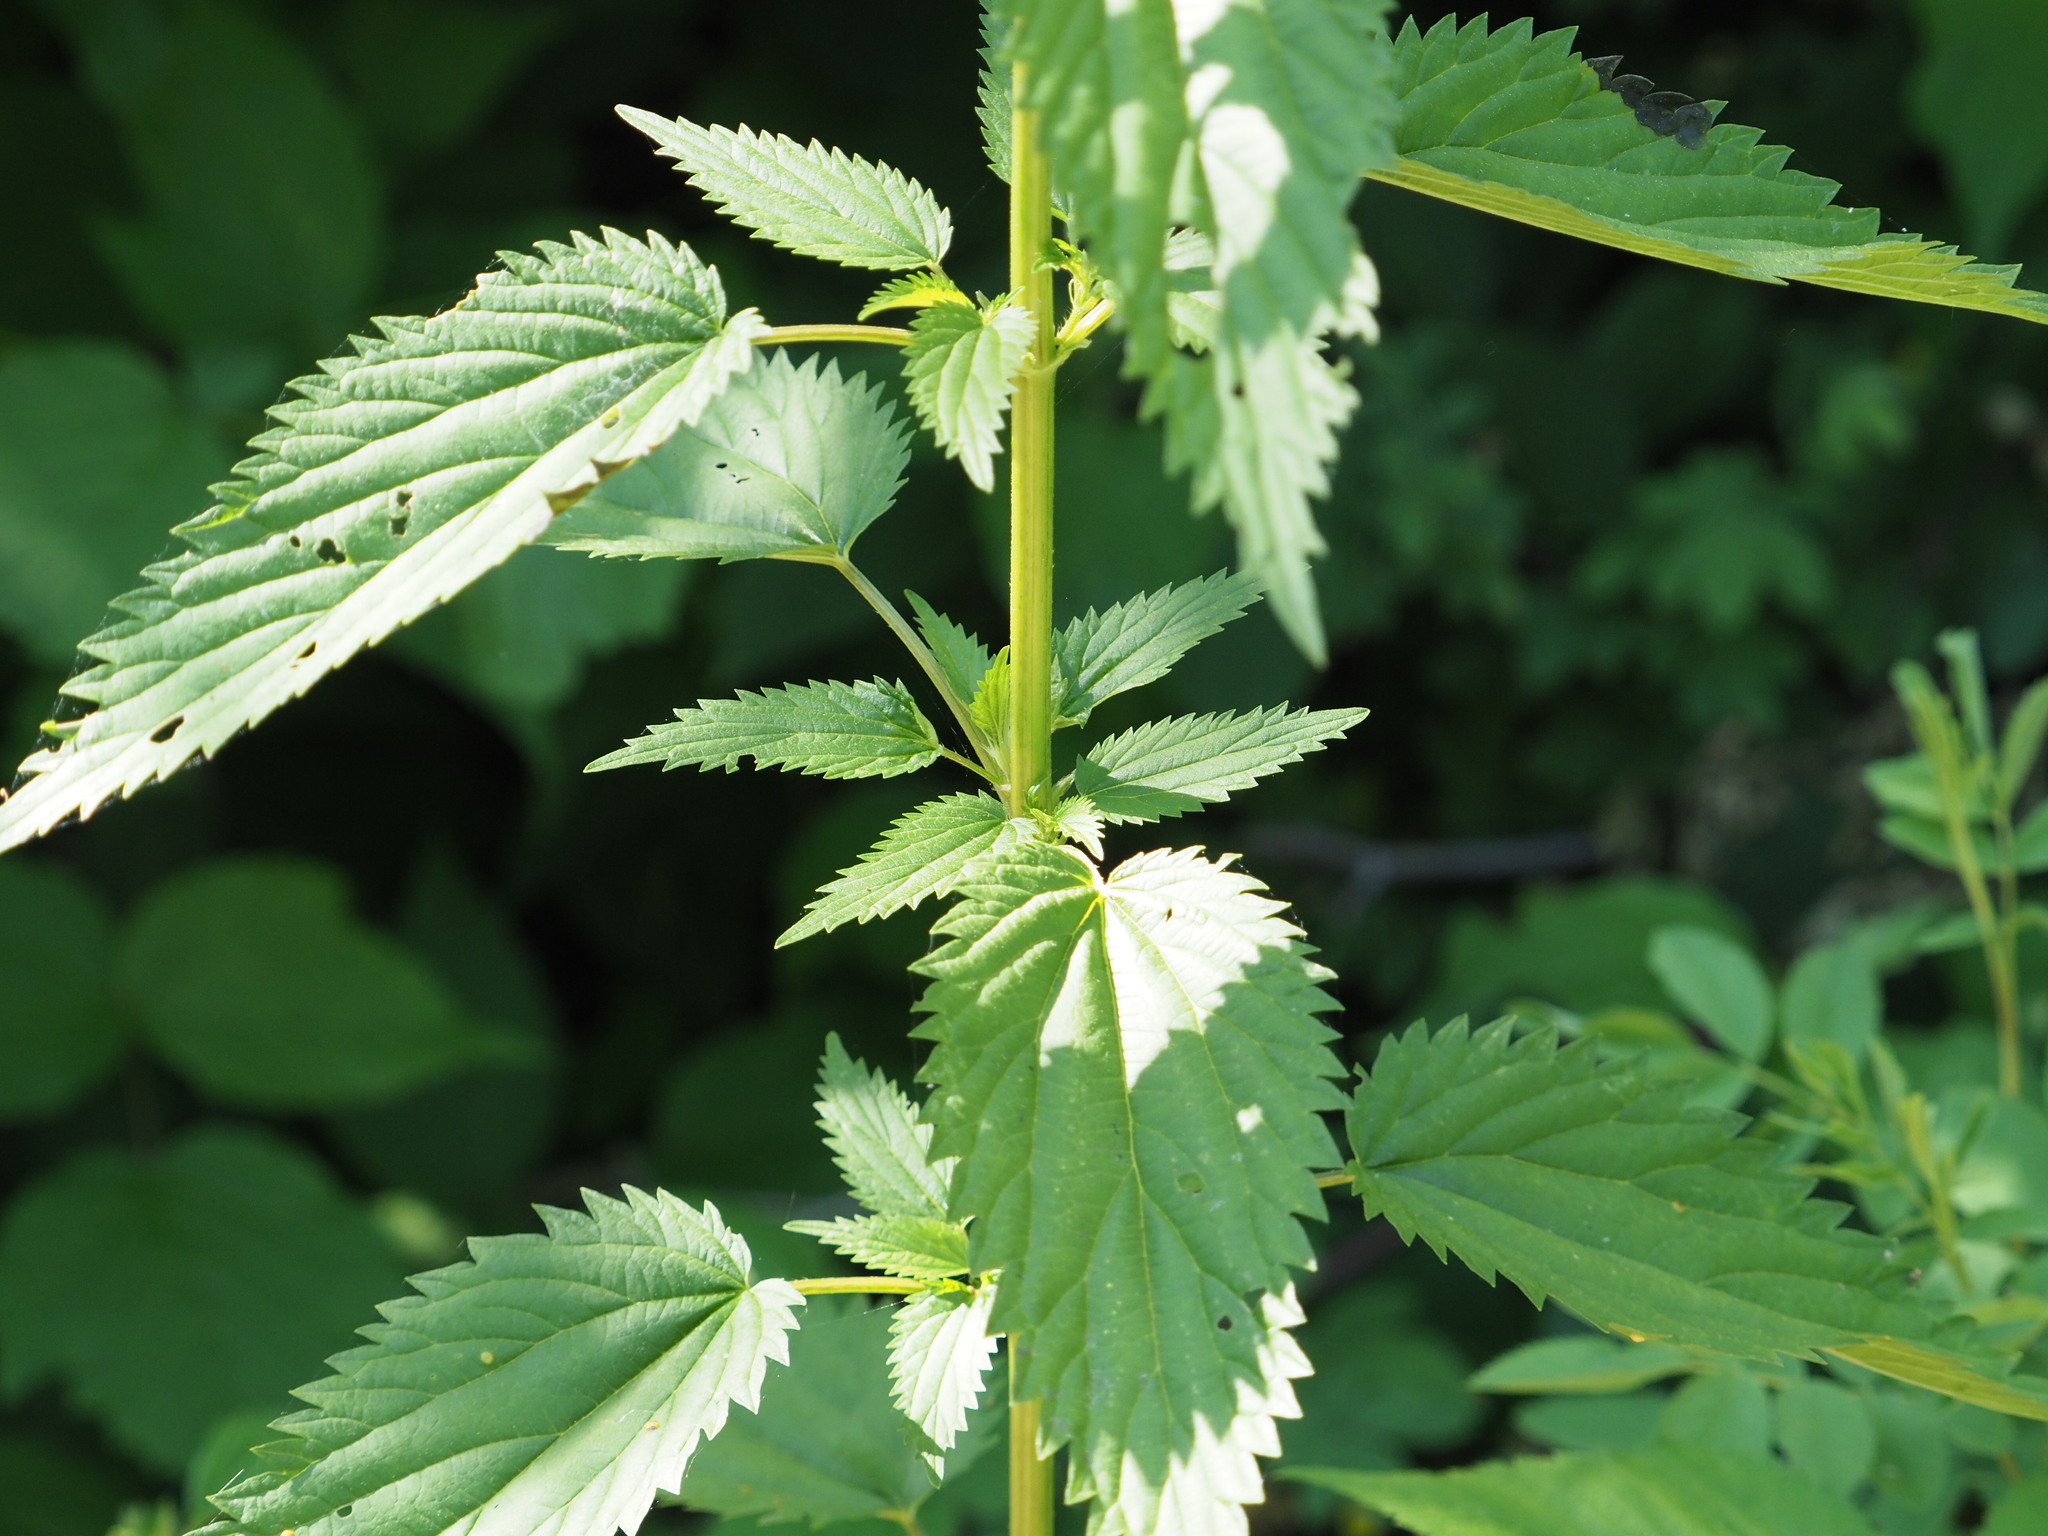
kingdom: Plantae
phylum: Tracheophyta
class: Magnoliopsida
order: Rosales
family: Urticaceae
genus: Urtica
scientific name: Urtica gracilis
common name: Slender stinging nettle
